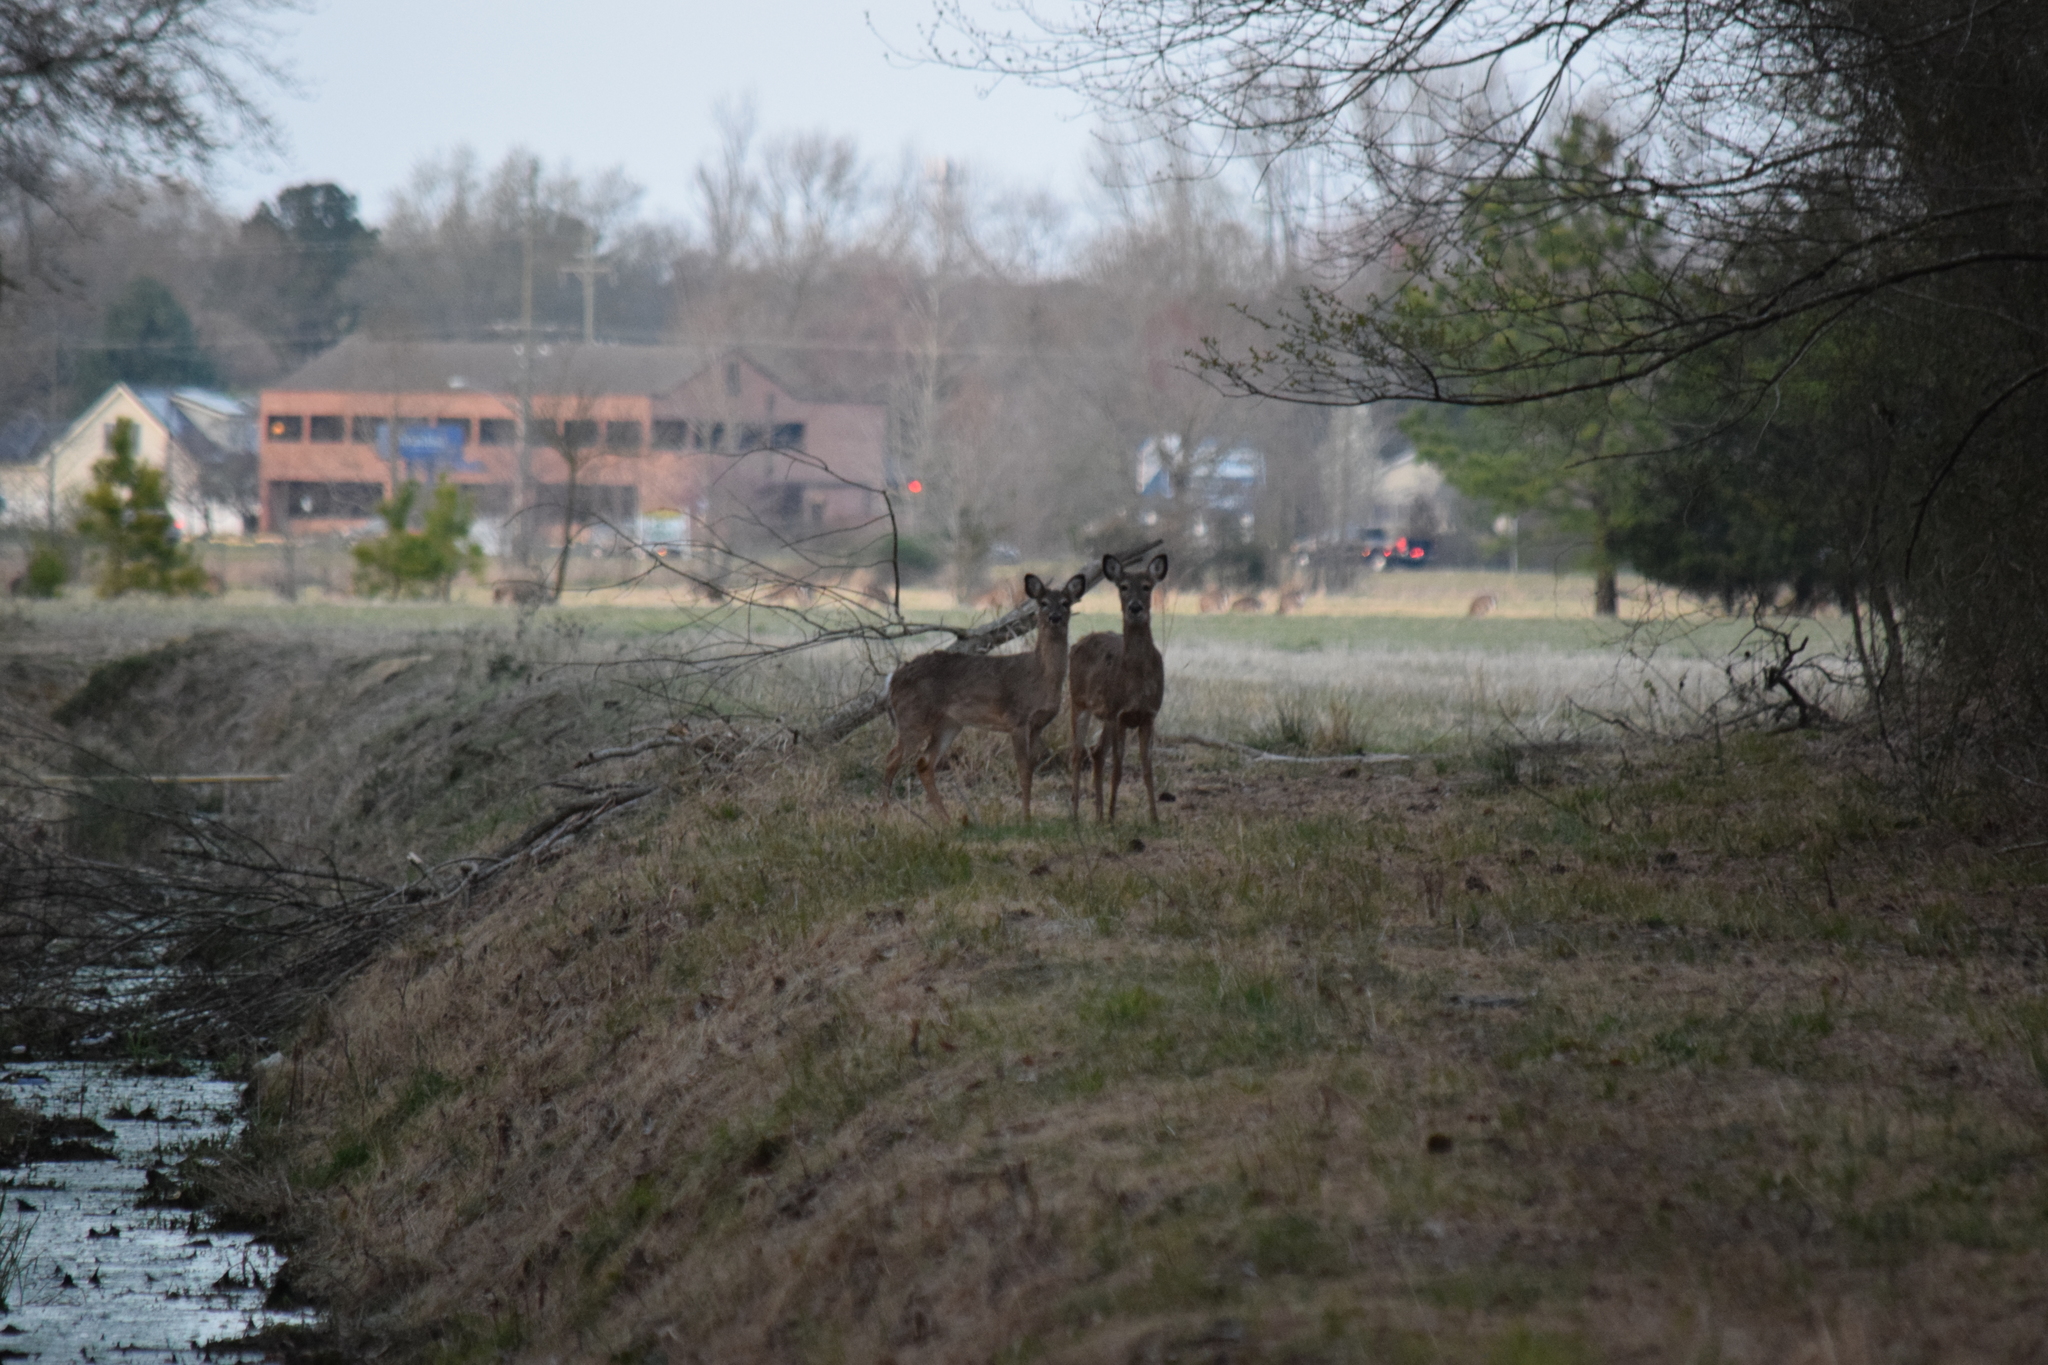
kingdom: Animalia
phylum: Chordata
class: Mammalia
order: Artiodactyla
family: Cervidae
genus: Odocoileus
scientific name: Odocoileus virginianus
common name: White-tailed deer
